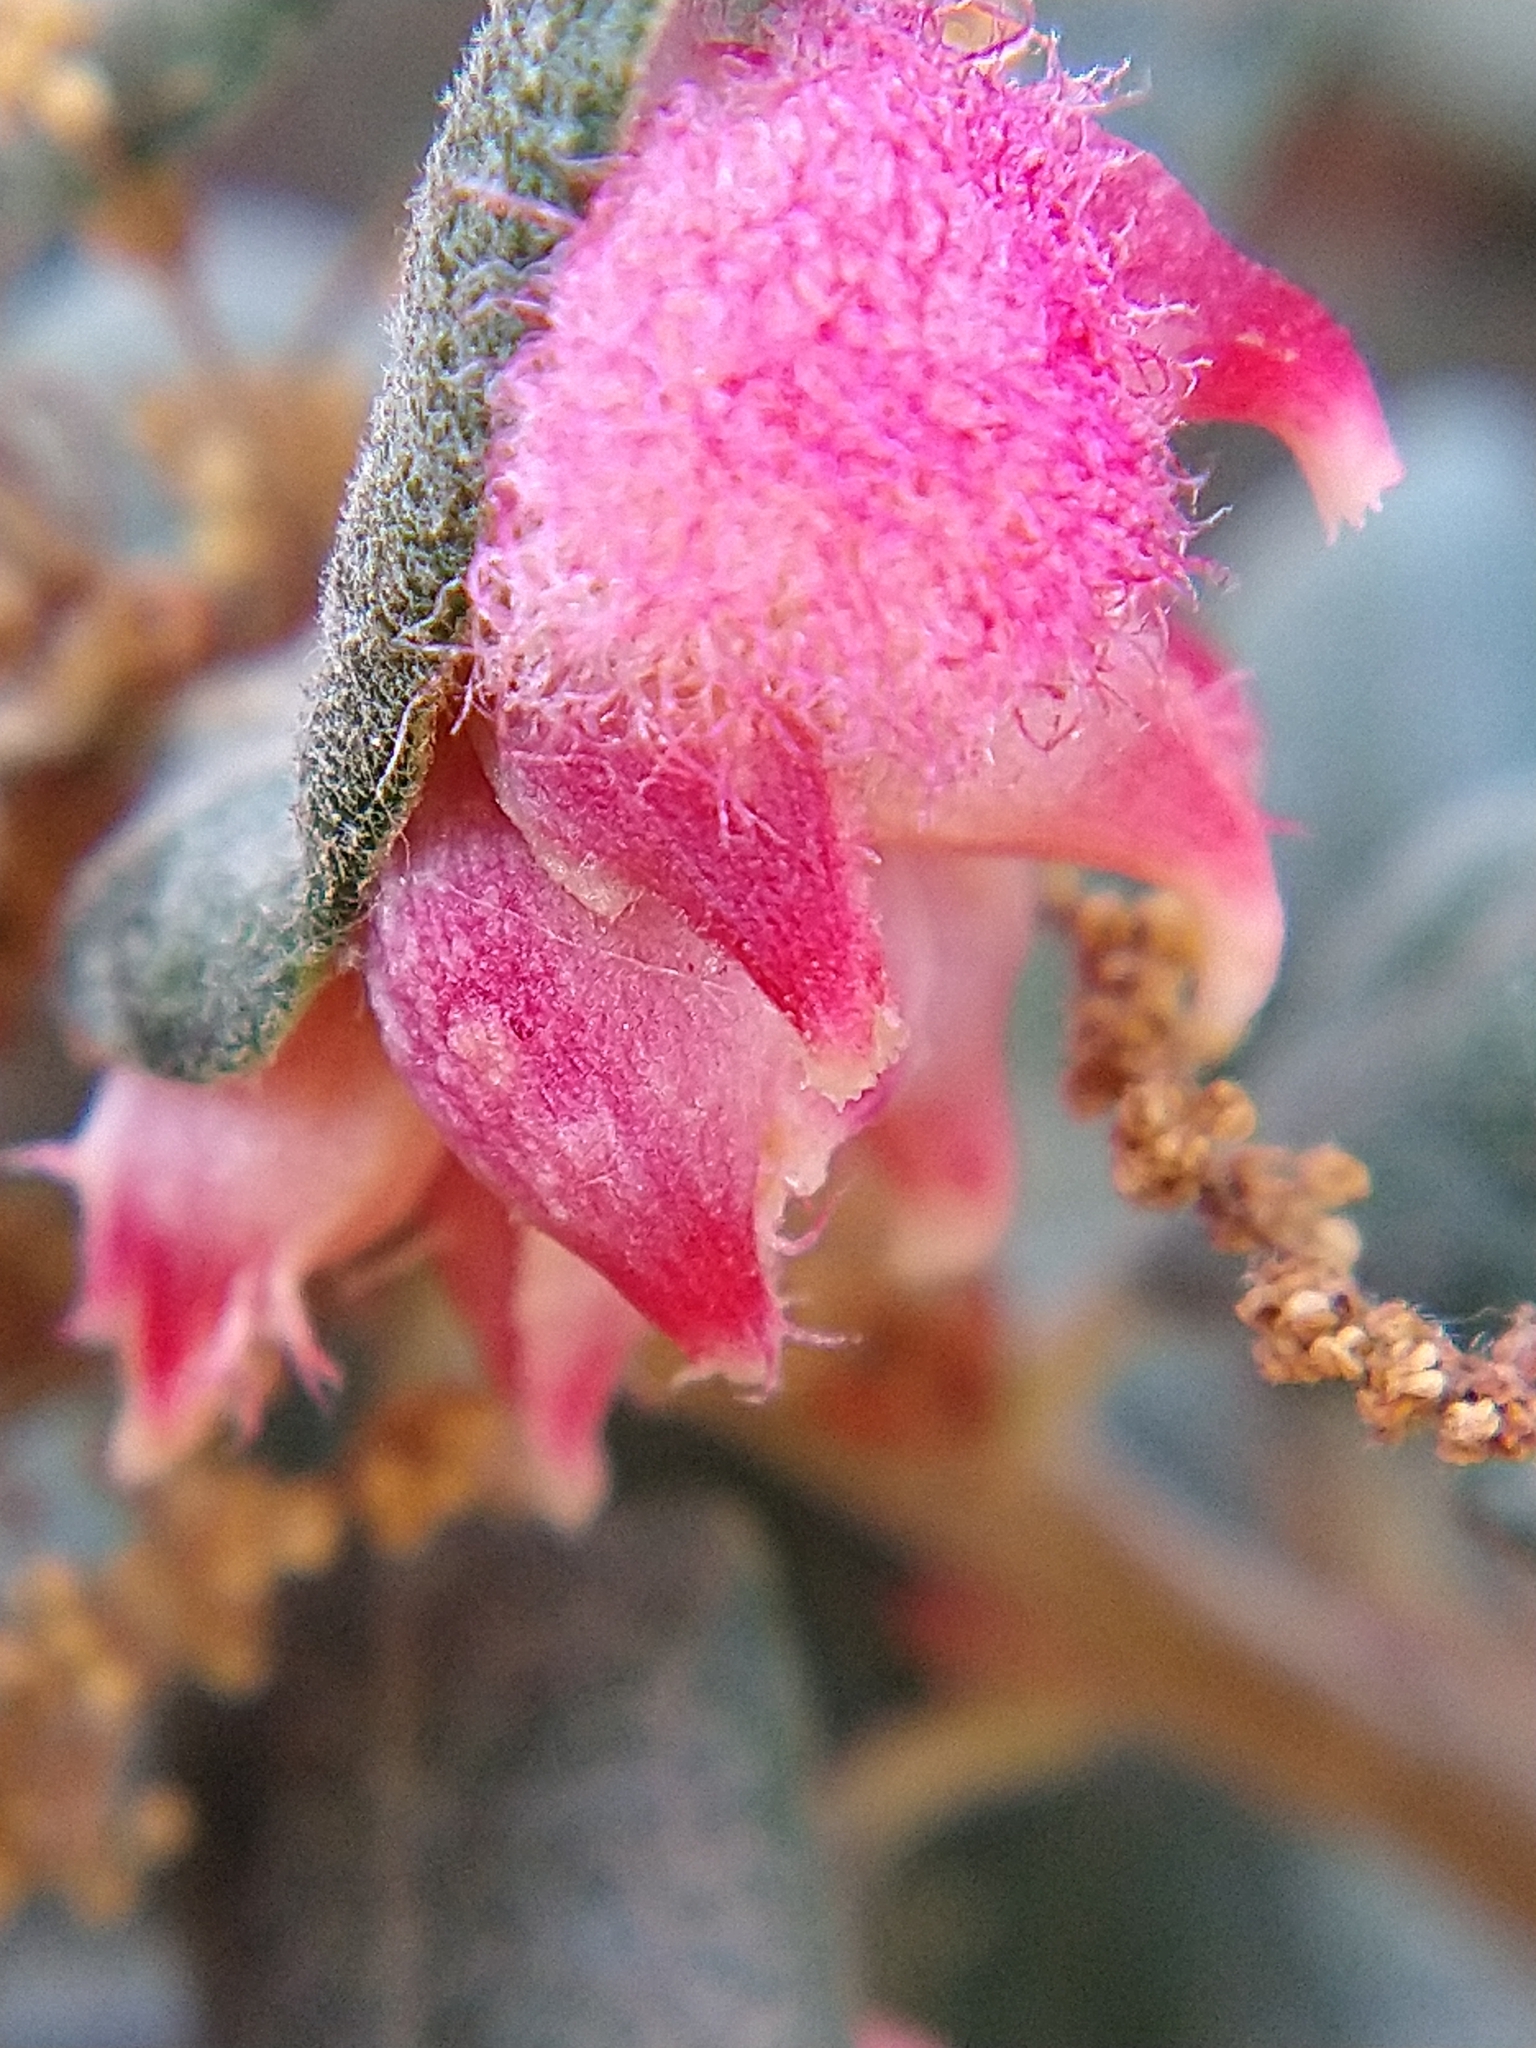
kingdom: Animalia
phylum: Arthropoda
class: Insecta
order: Hymenoptera
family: Cynipidae
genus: Andricus
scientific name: Andricus
